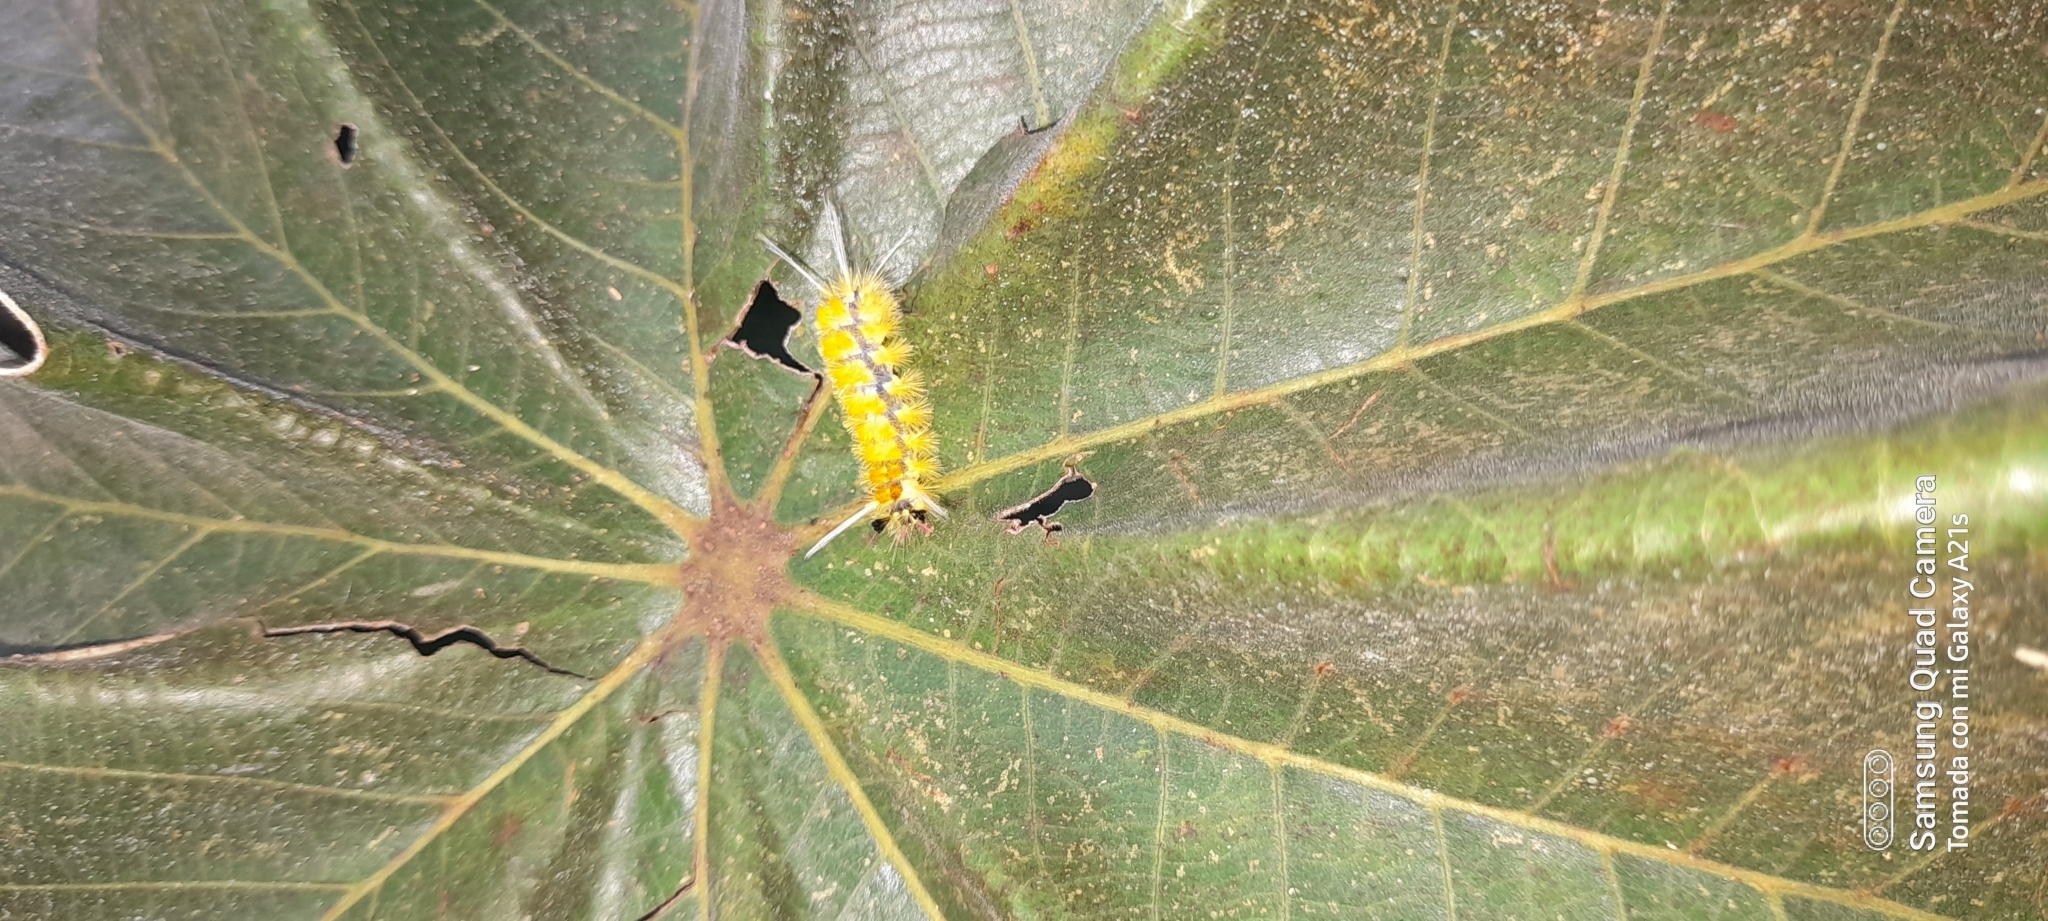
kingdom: Animalia
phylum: Arthropoda
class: Insecta
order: Lepidoptera
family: Erebidae
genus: Lophocampa
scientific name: Lophocampa annulosa
